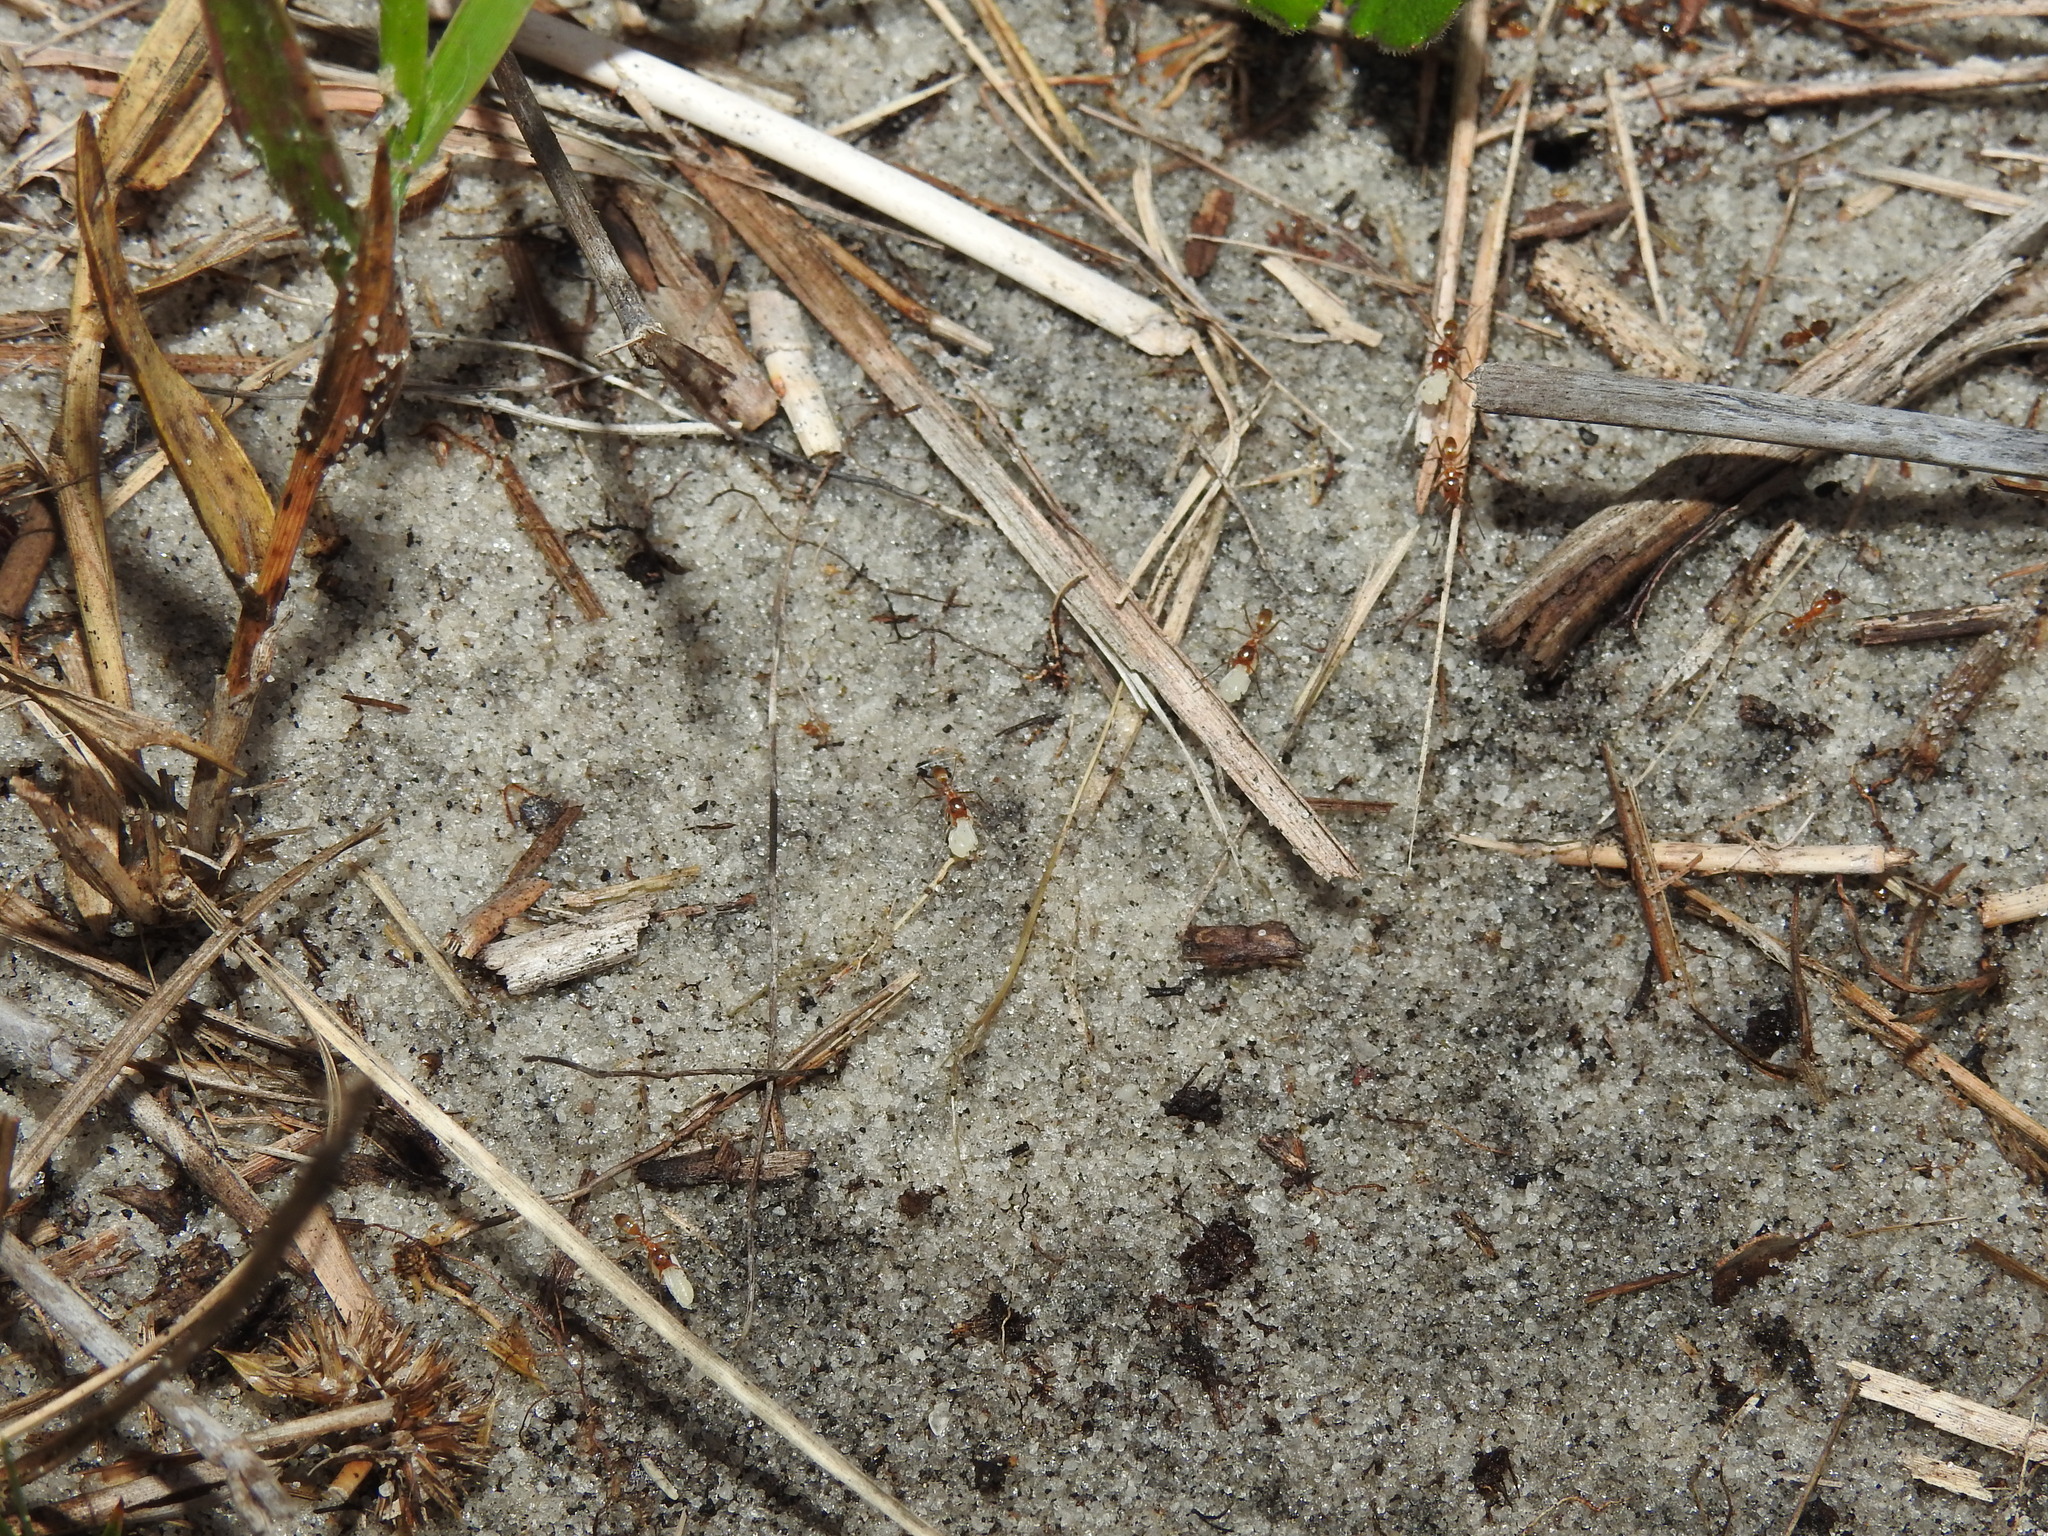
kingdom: Animalia
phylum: Arthropoda
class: Insecta
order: Hymenoptera
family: Formicidae
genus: Dorymyrmex
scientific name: Dorymyrmex bureni
